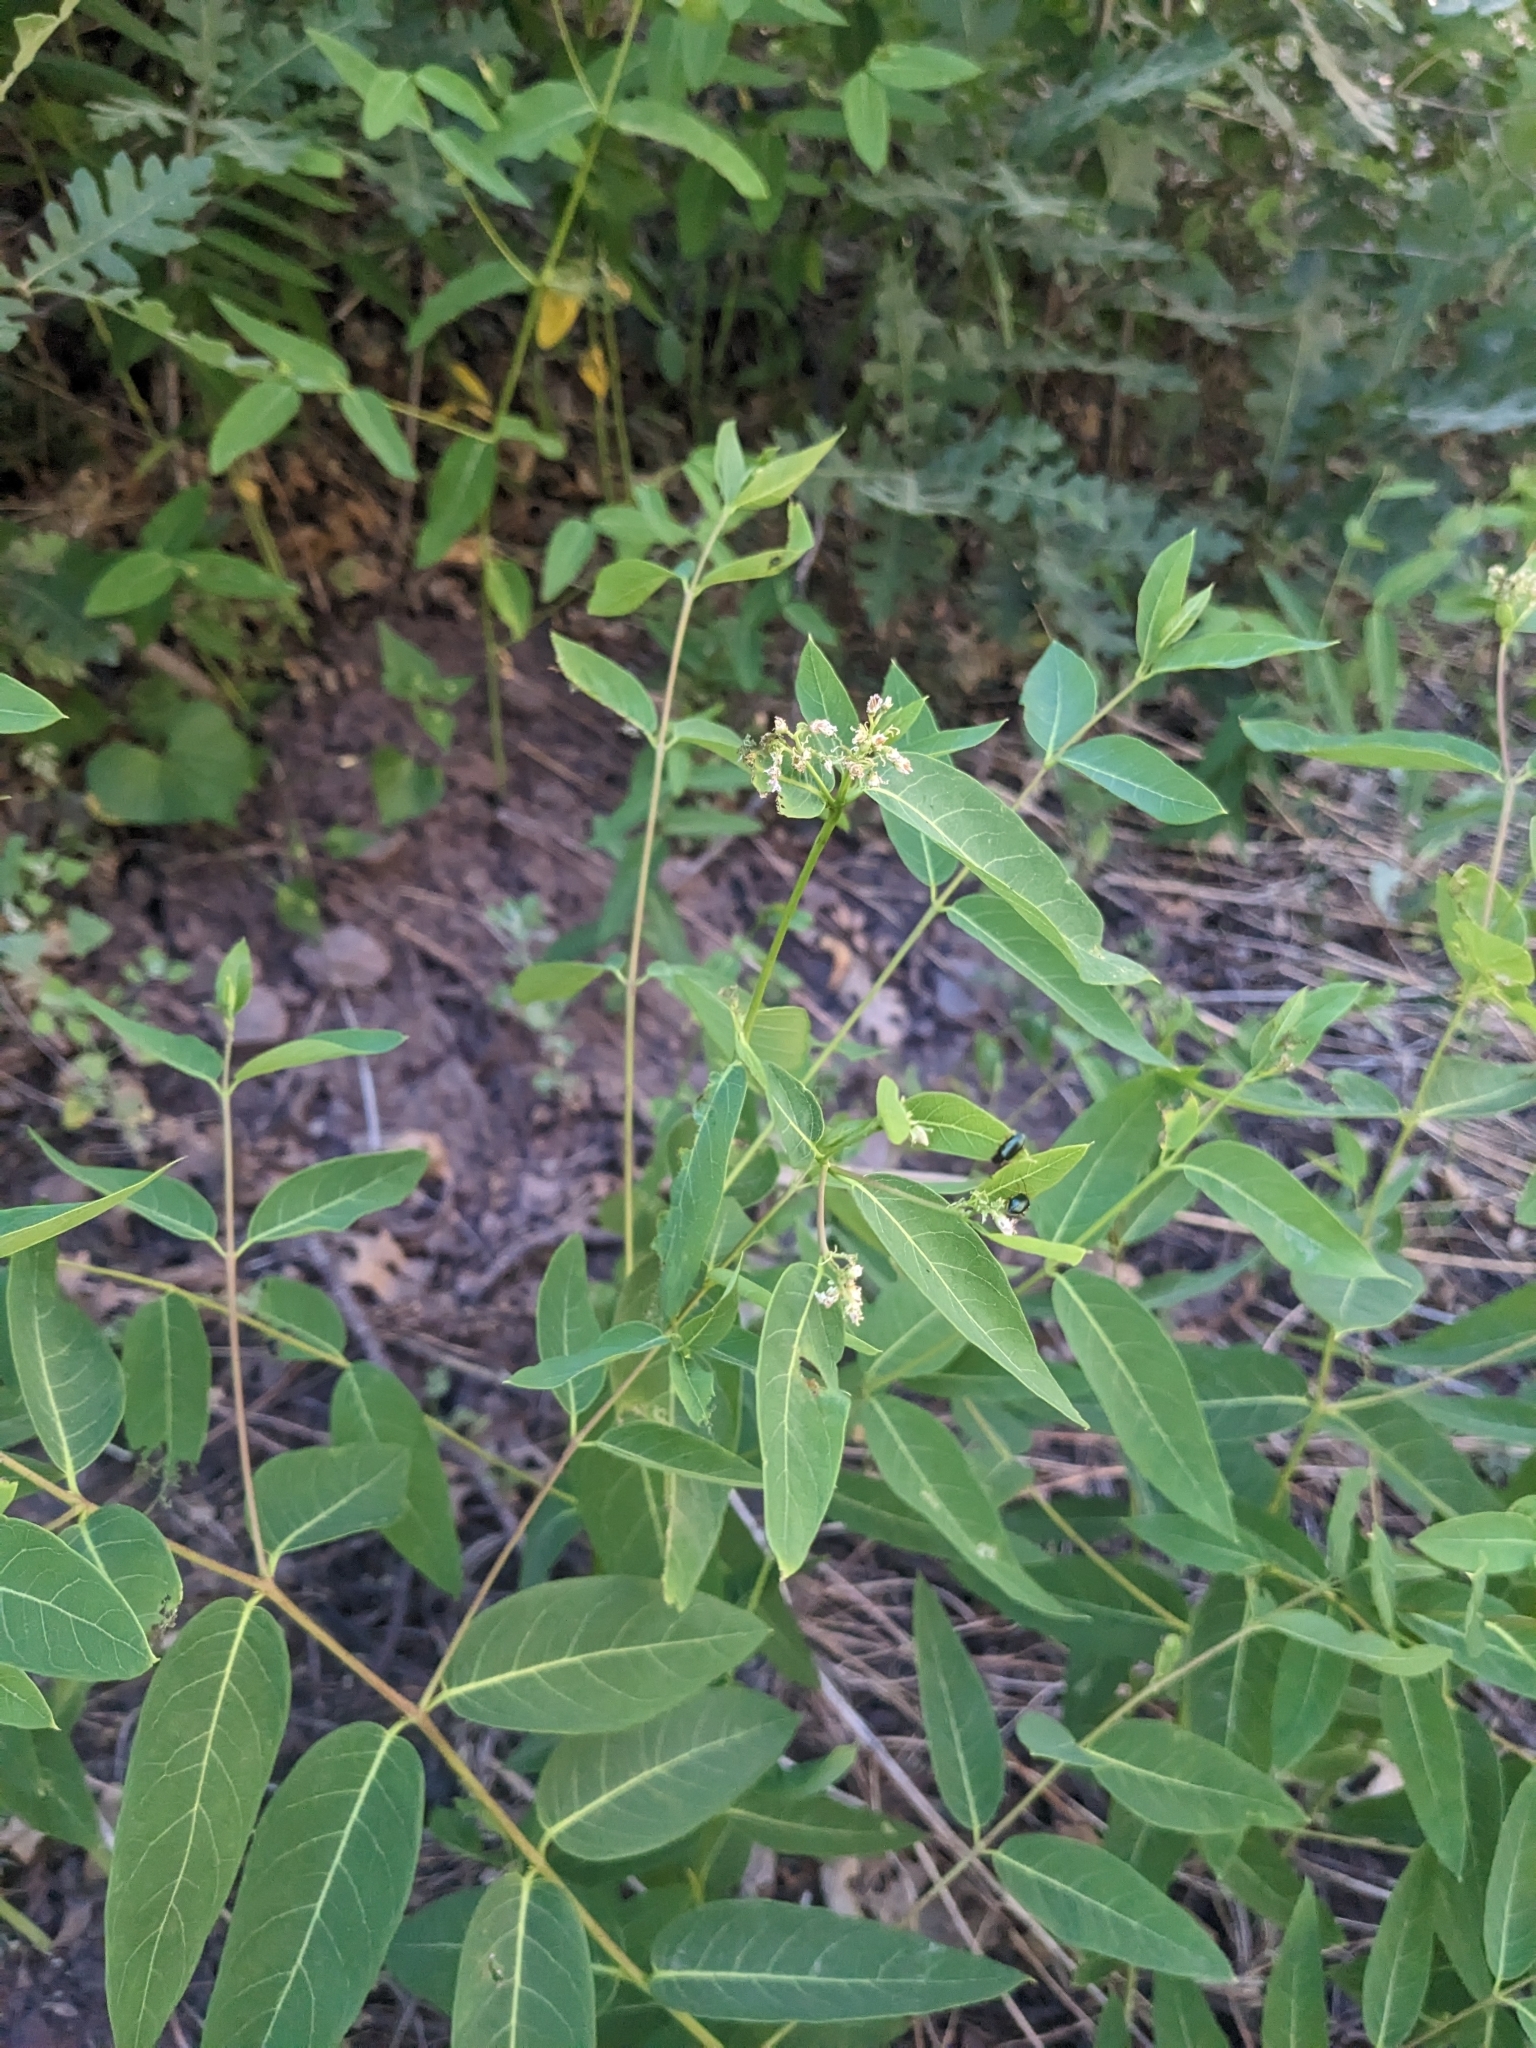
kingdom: Plantae
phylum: Tracheophyta
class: Magnoliopsida
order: Gentianales
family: Apocynaceae
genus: Apocynum
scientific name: Apocynum cannabinum
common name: Hemp dogbane
